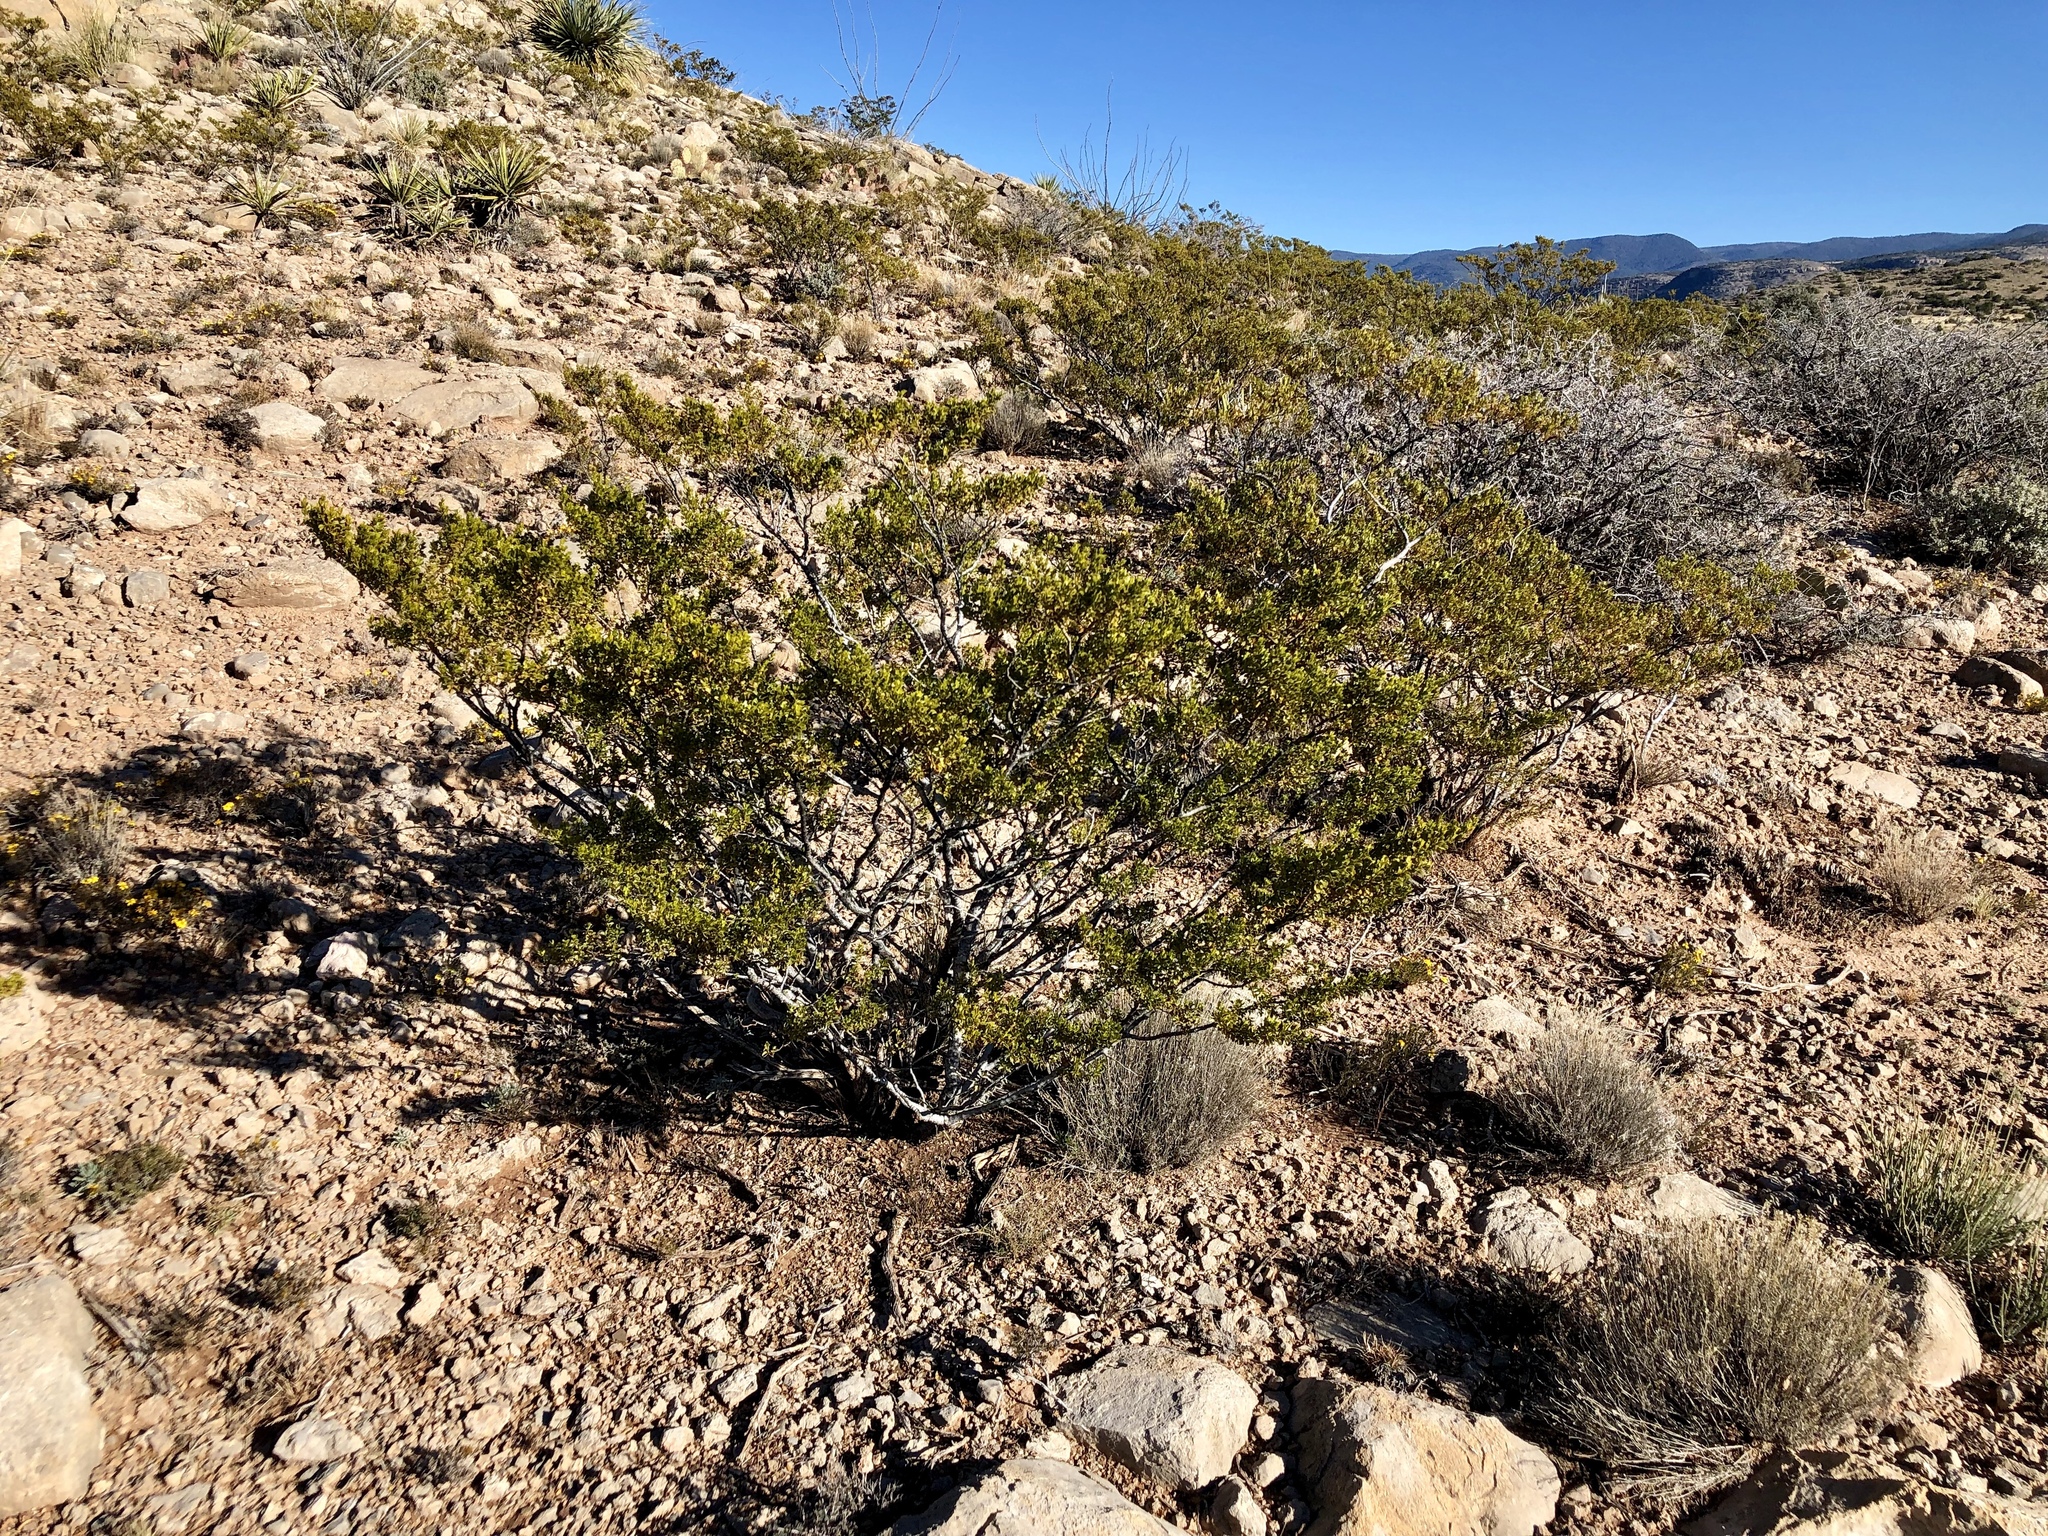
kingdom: Plantae
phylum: Tracheophyta
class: Magnoliopsida
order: Zygophyllales
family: Zygophyllaceae
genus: Larrea
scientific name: Larrea tridentata
